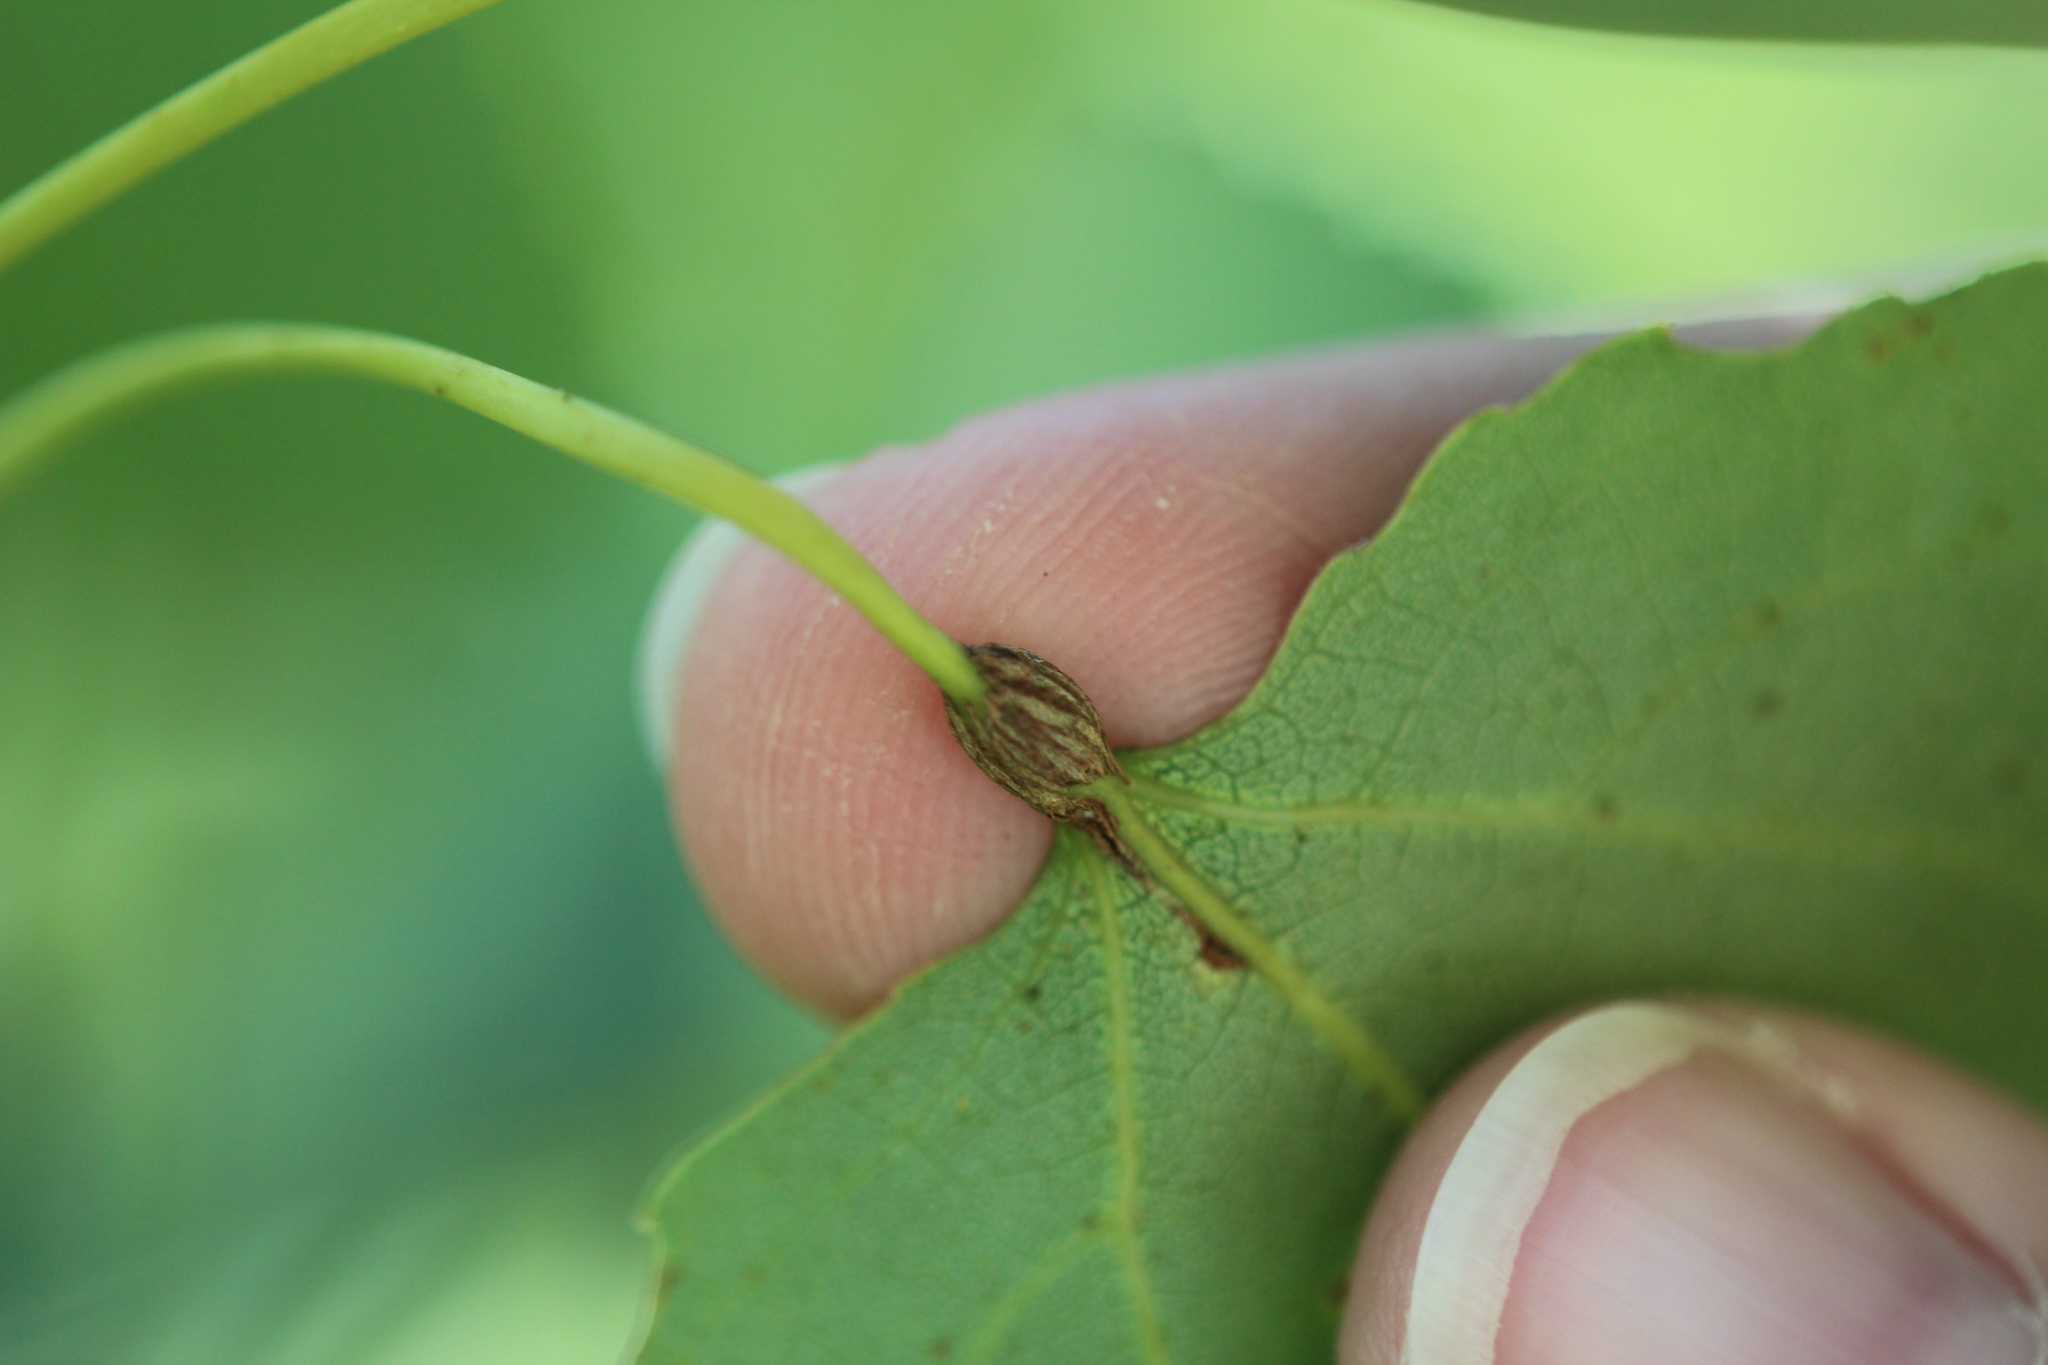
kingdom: Animalia
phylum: Arthropoda
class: Insecta
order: Lepidoptera
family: Nepticulidae
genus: Ectoedemia
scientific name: Ectoedemia populella
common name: Aspen petiole gall moth
